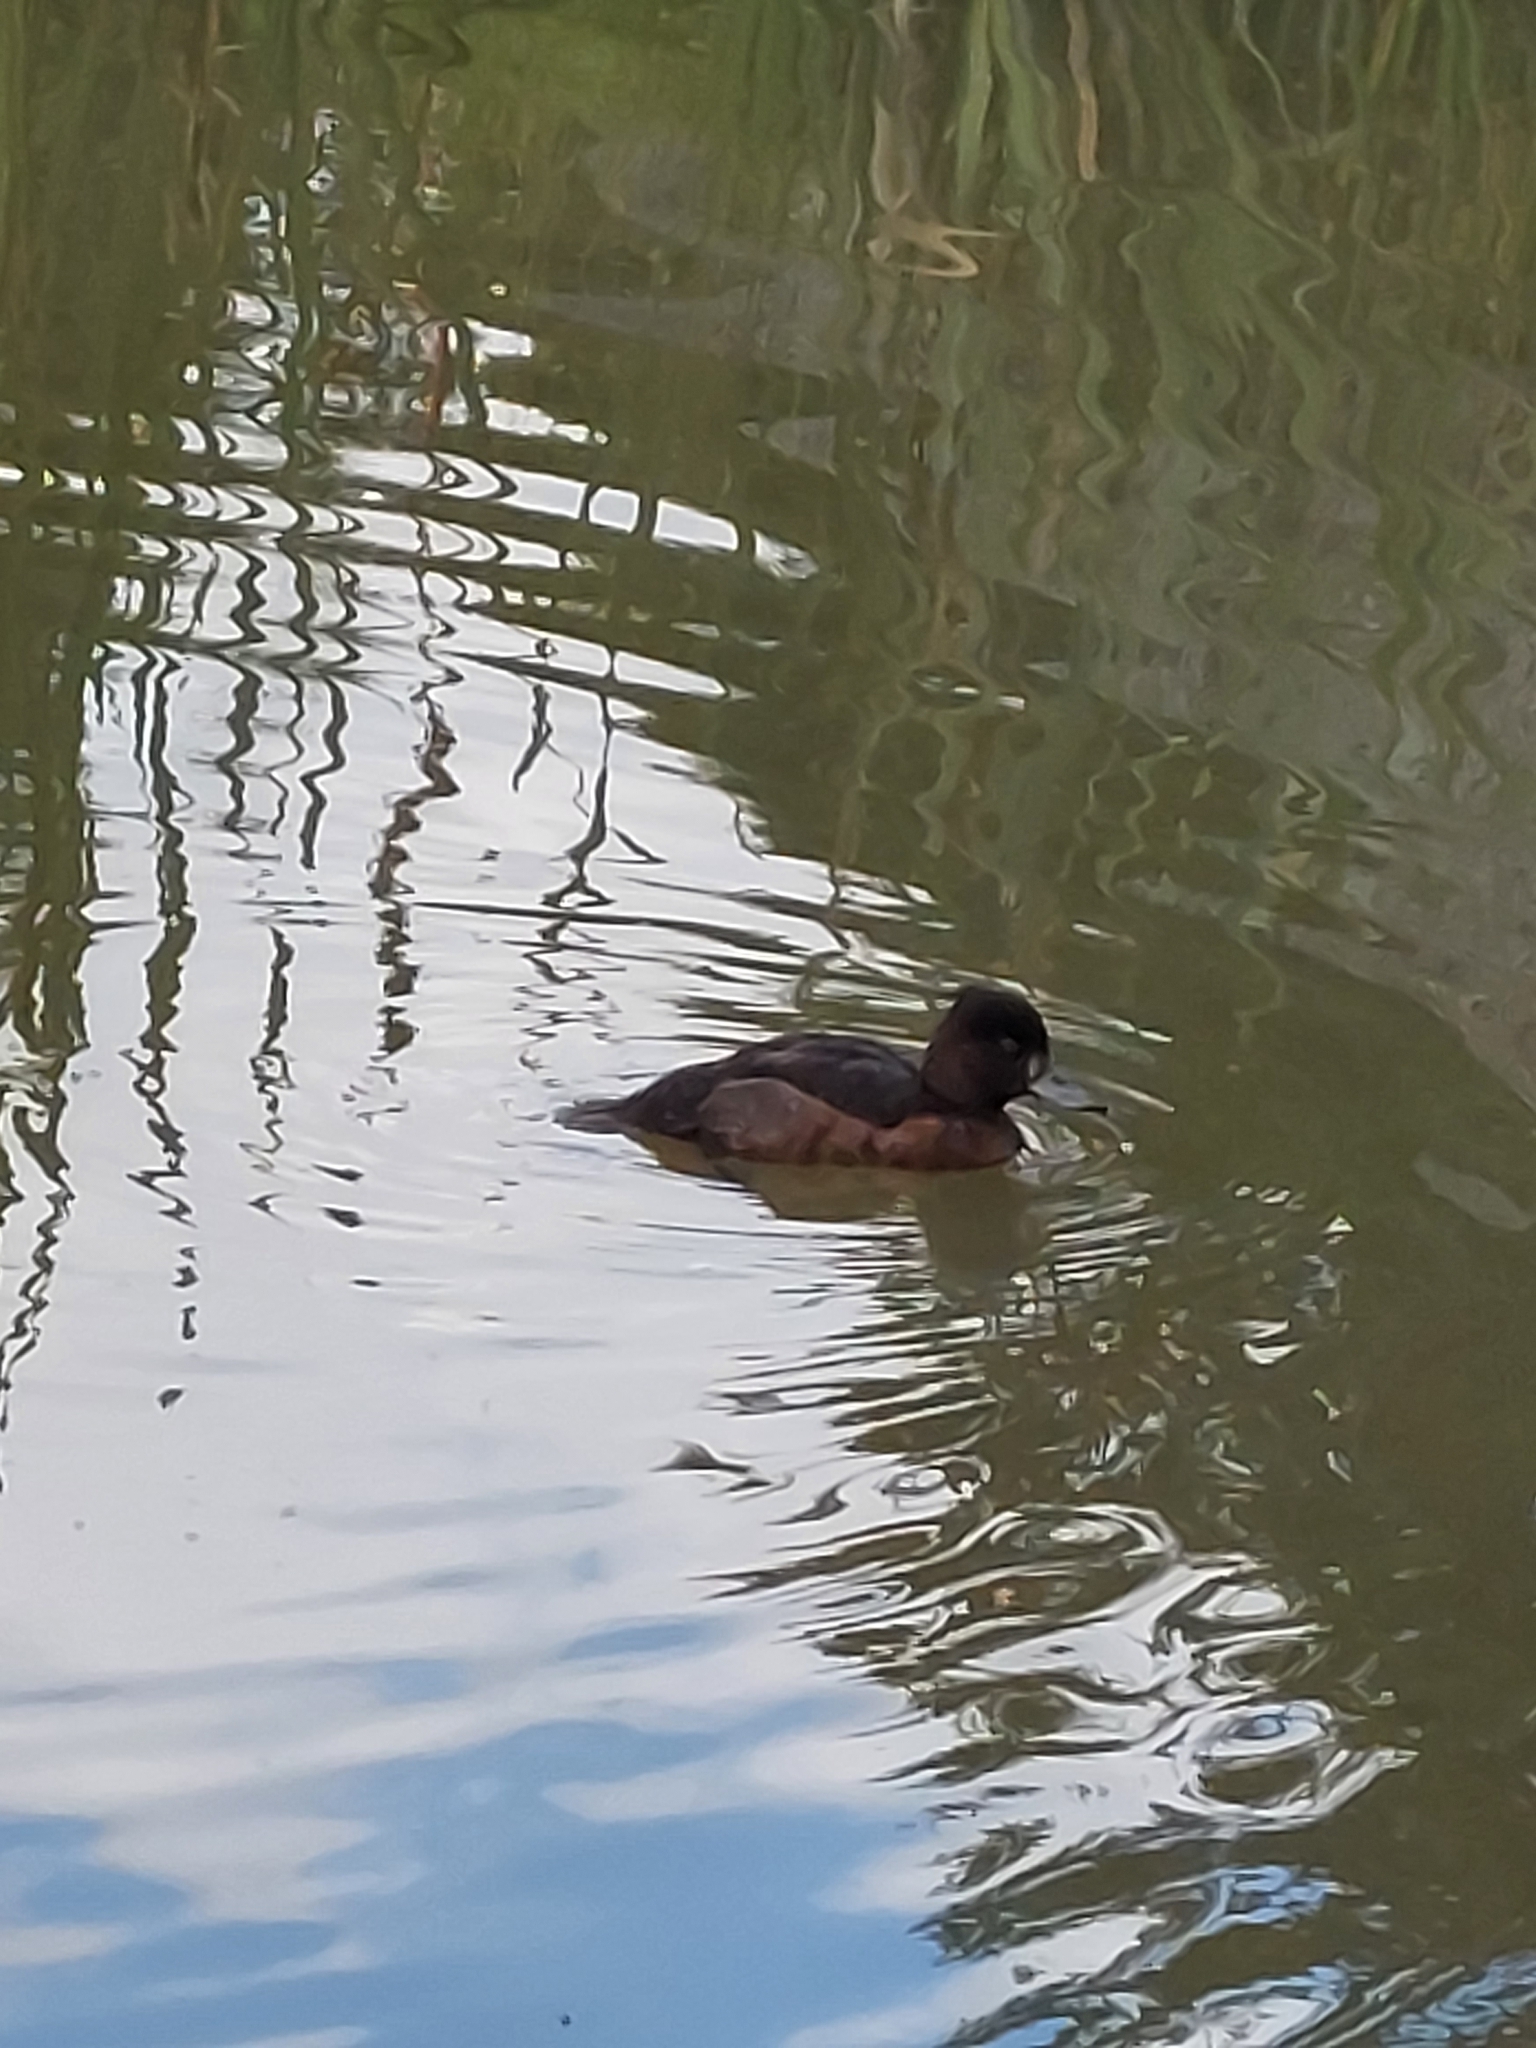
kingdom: Animalia
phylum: Chordata
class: Aves
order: Anseriformes
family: Anatidae
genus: Aythya
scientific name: Aythya fuligula
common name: Tufted duck
